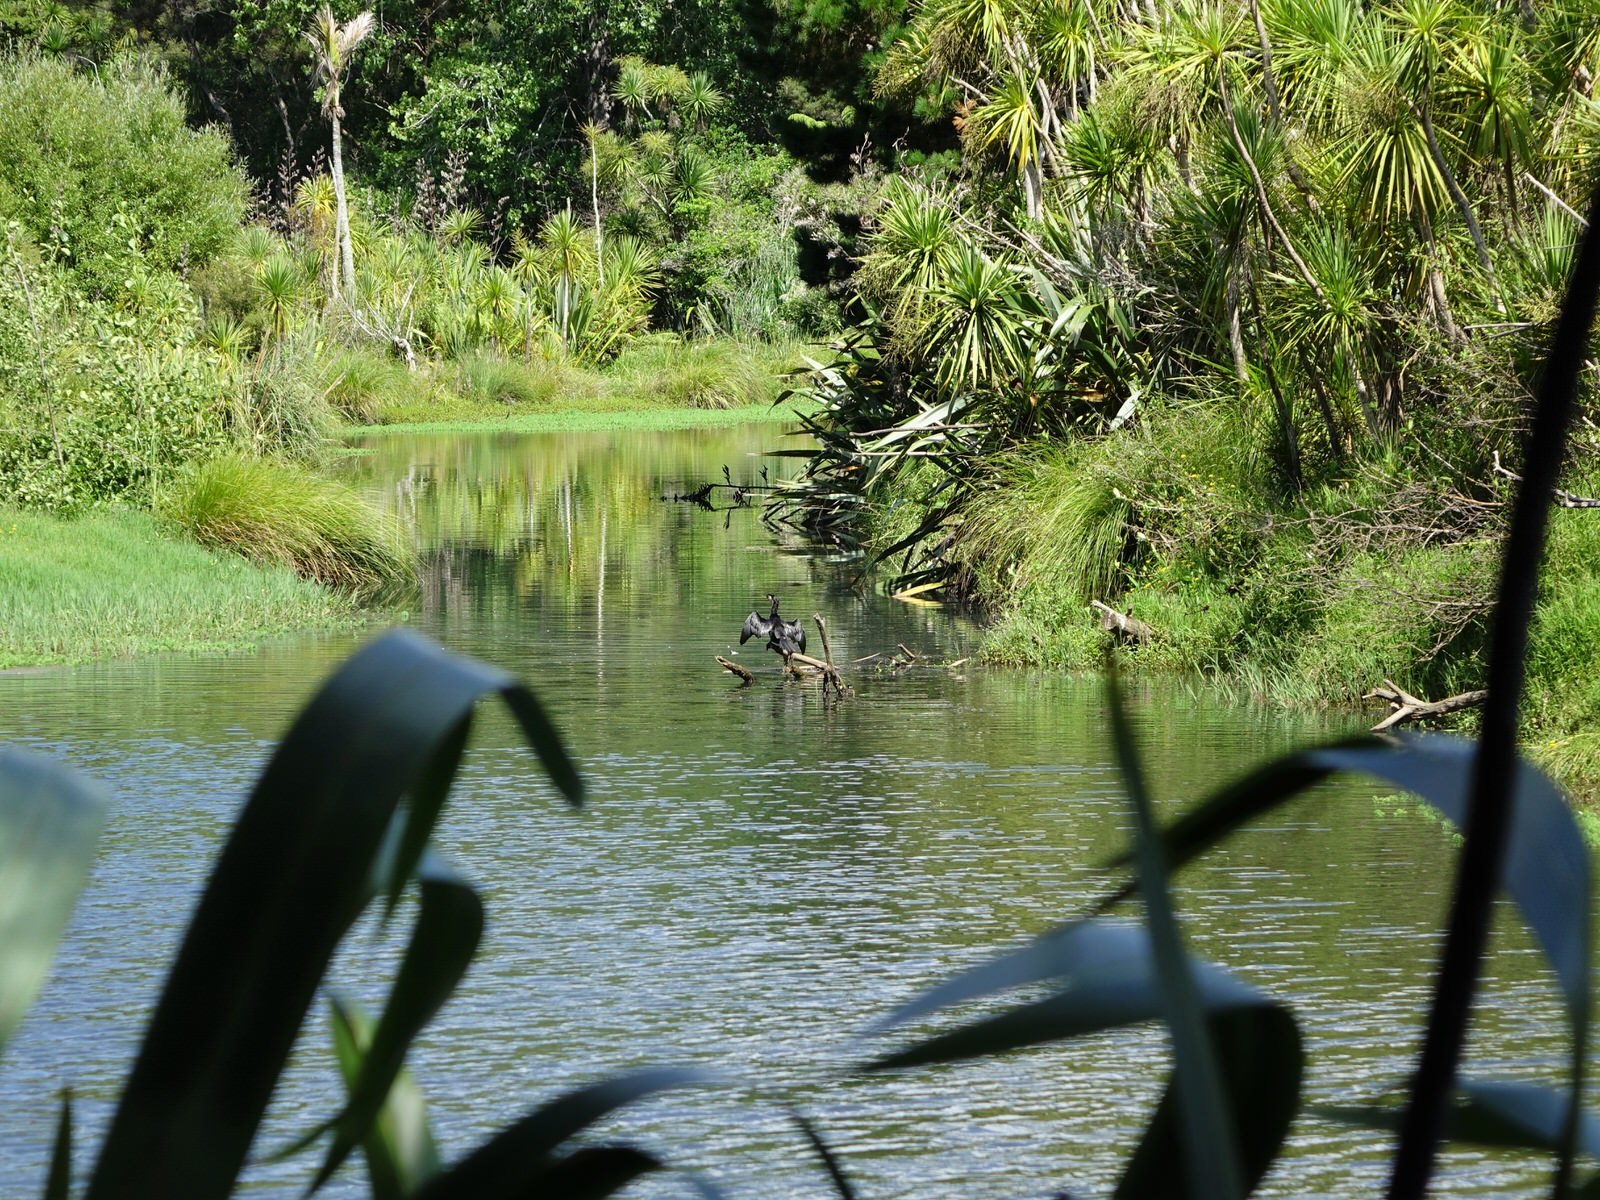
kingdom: Animalia
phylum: Chordata
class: Aves
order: Suliformes
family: Phalacrocoracidae
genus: Microcarbo
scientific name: Microcarbo melanoleucos
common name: Little pied cormorant
